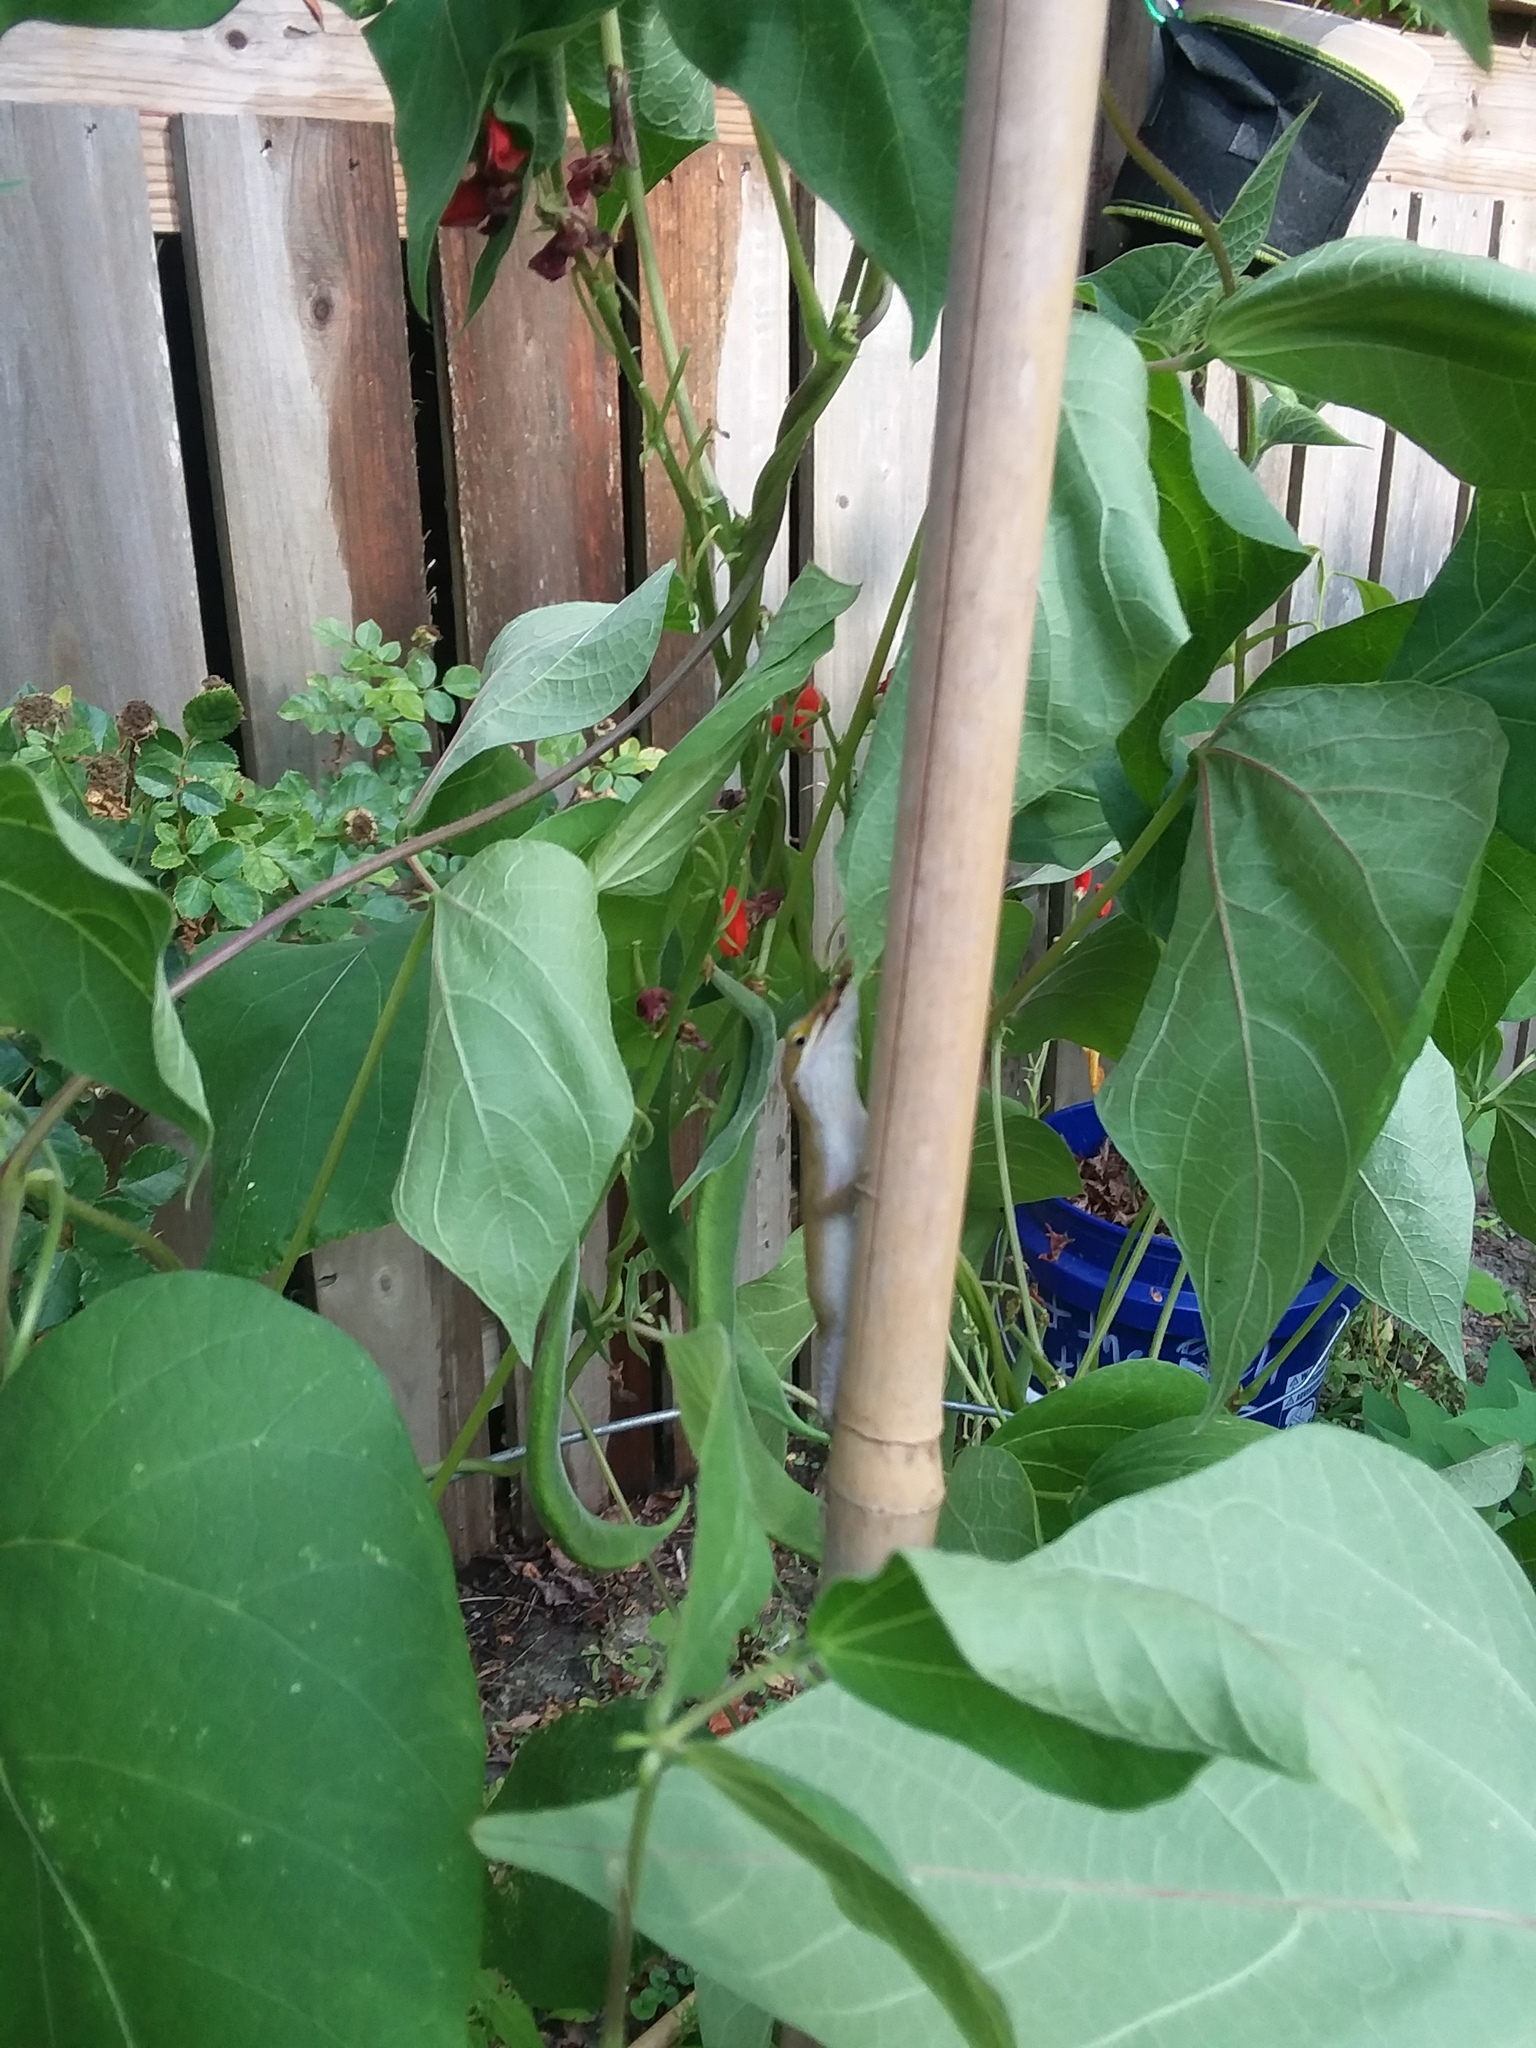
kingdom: Animalia
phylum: Chordata
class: Squamata
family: Dactyloidae
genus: Anolis
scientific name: Anolis carolinensis
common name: Green anole
